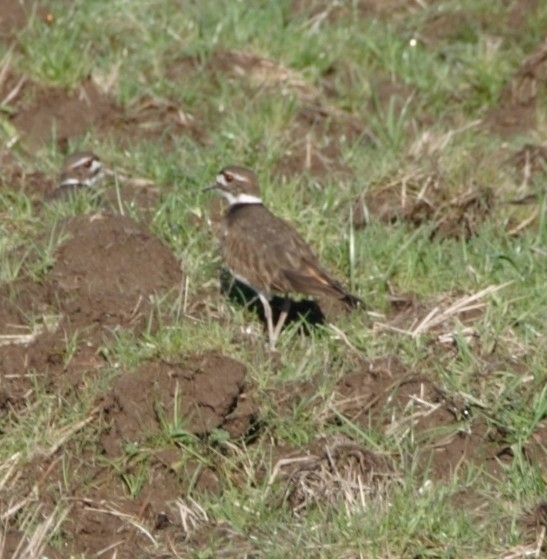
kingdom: Animalia
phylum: Chordata
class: Aves
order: Charadriiformes
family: Charadriidae
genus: Charadrius
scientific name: Charadrius vociferus
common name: Killdeer
